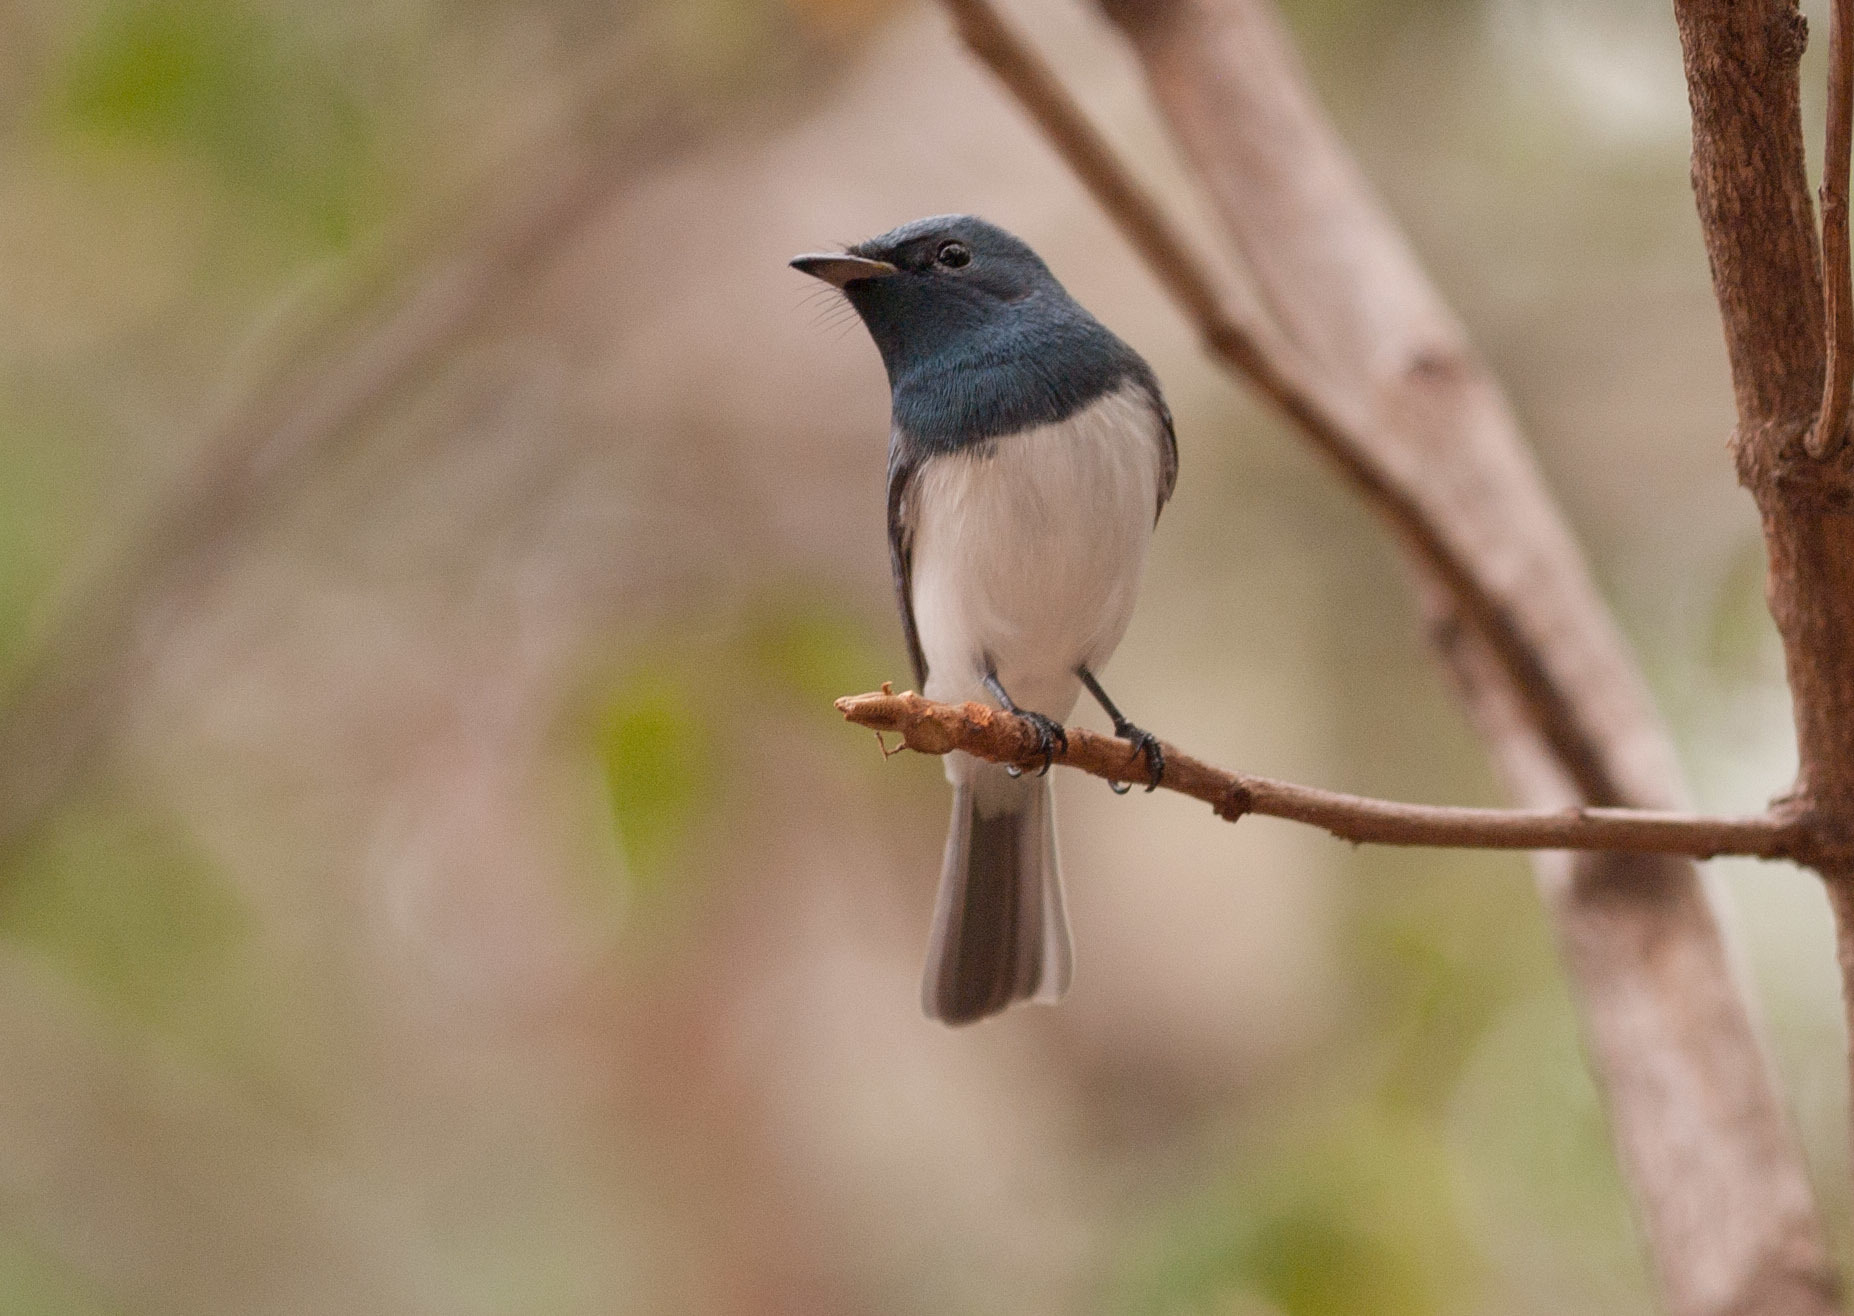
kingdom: Animalia
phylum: Chordata
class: Aves
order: Passeriformes
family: Monarchidae
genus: Myiagra
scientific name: Myiagra rubecula
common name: Leaden flycatcher
